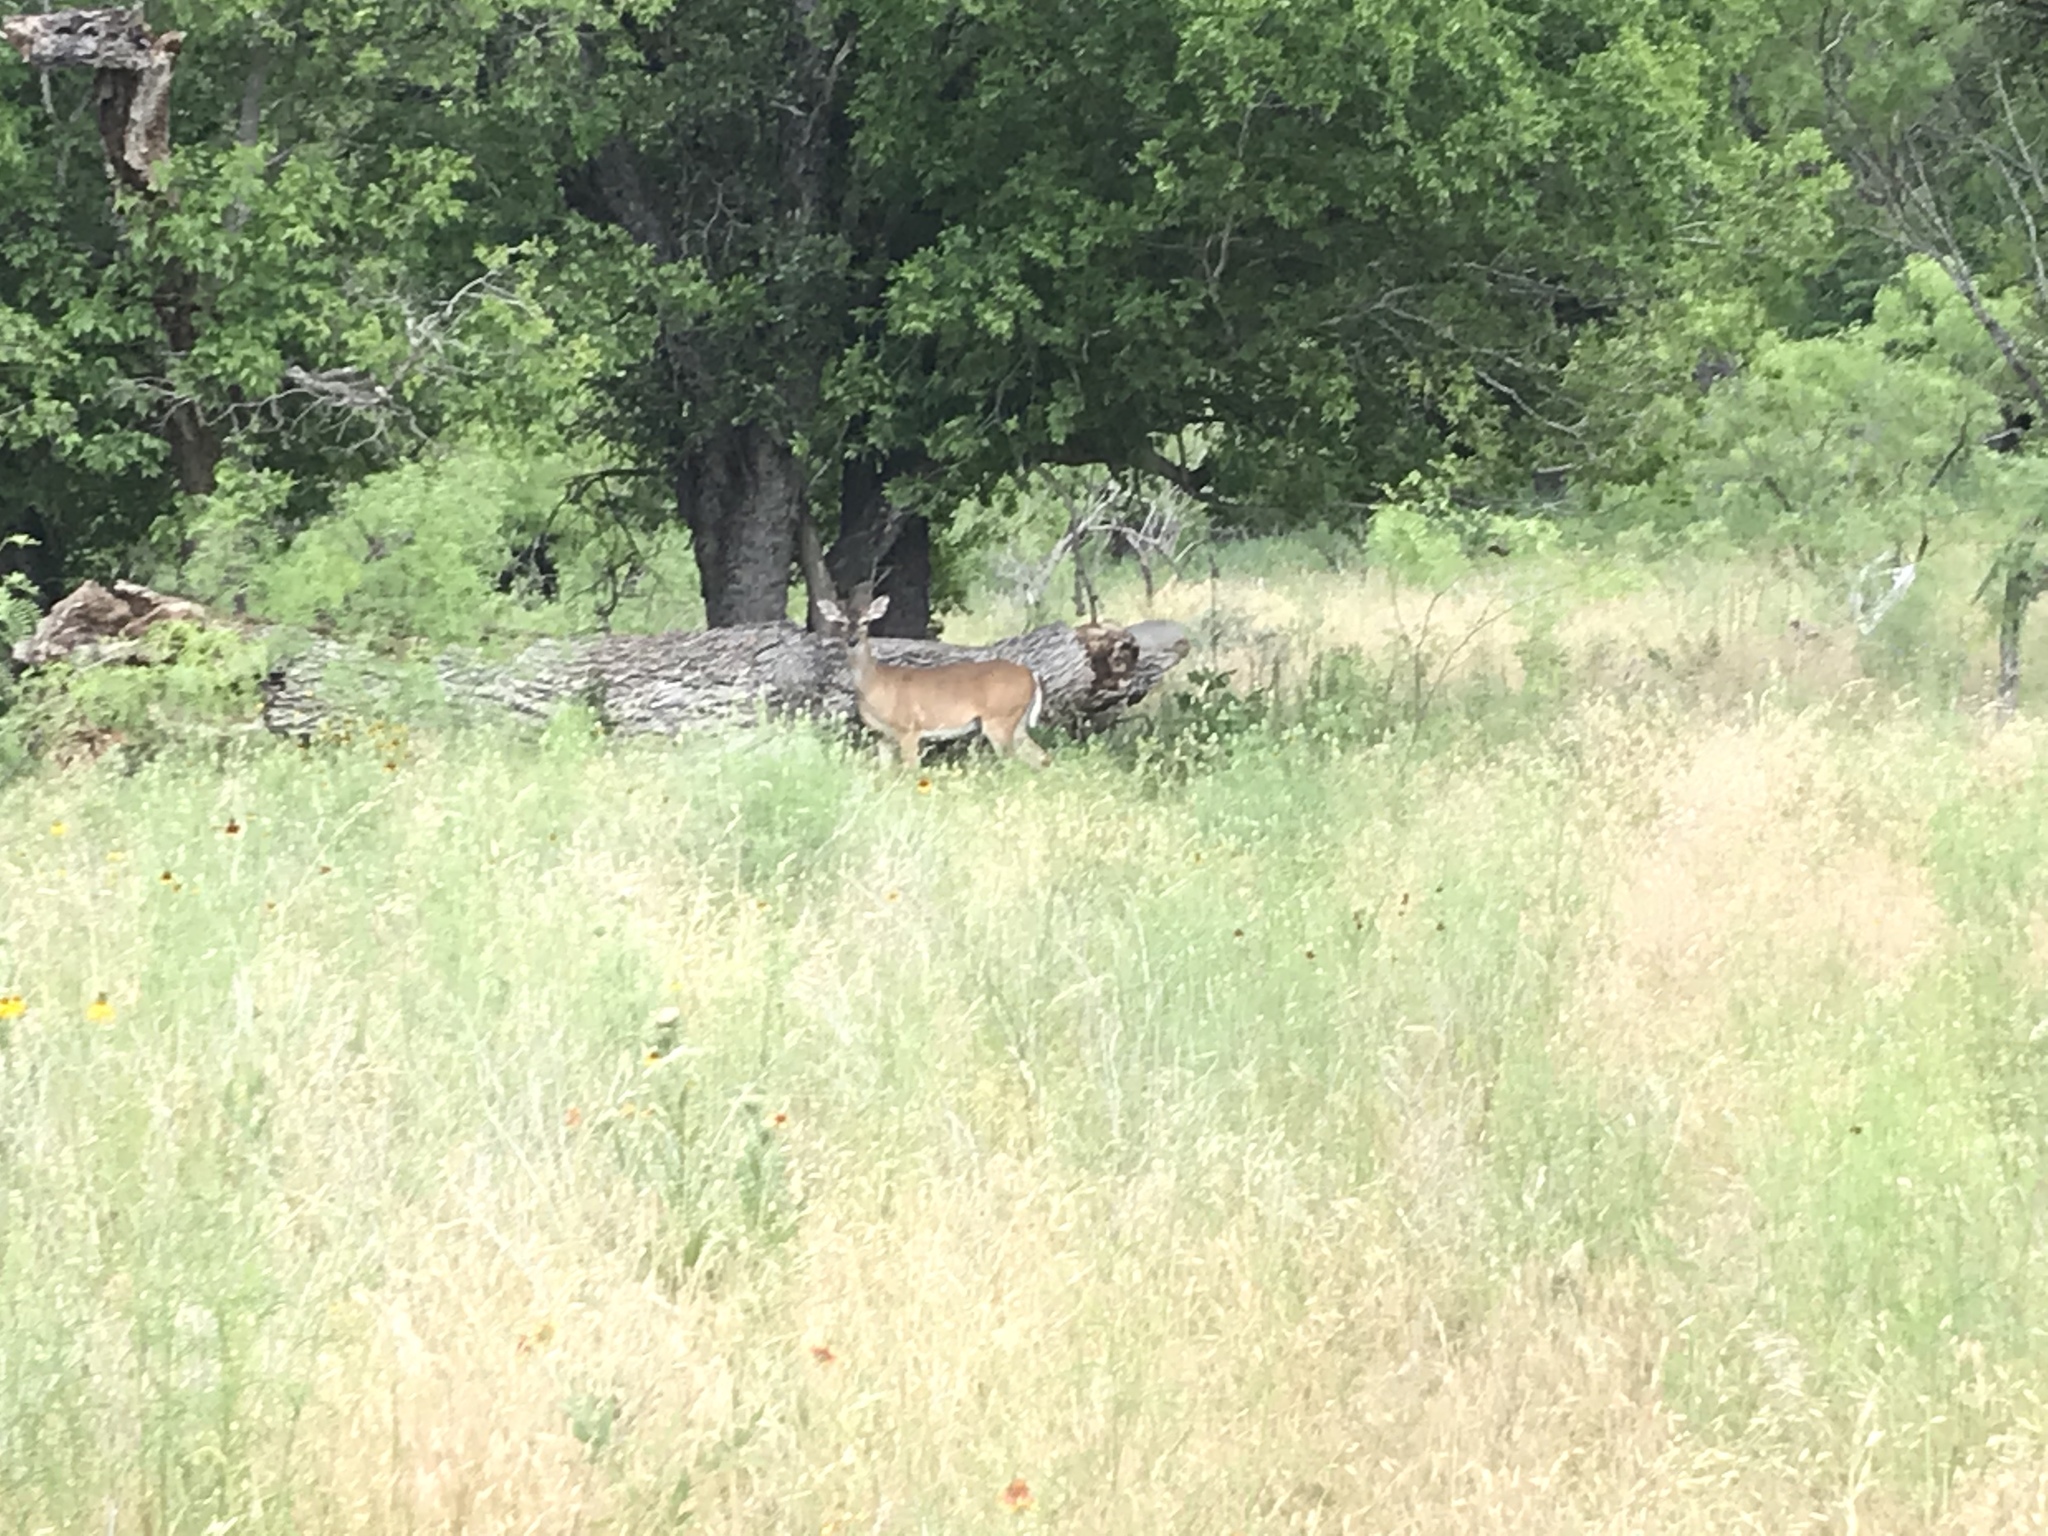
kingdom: Animalia
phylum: Chordata
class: Mammalia
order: Artiodactyla
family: Cervidae
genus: Odocoileus
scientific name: Odocoileus virginianus
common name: White-tailed deer
